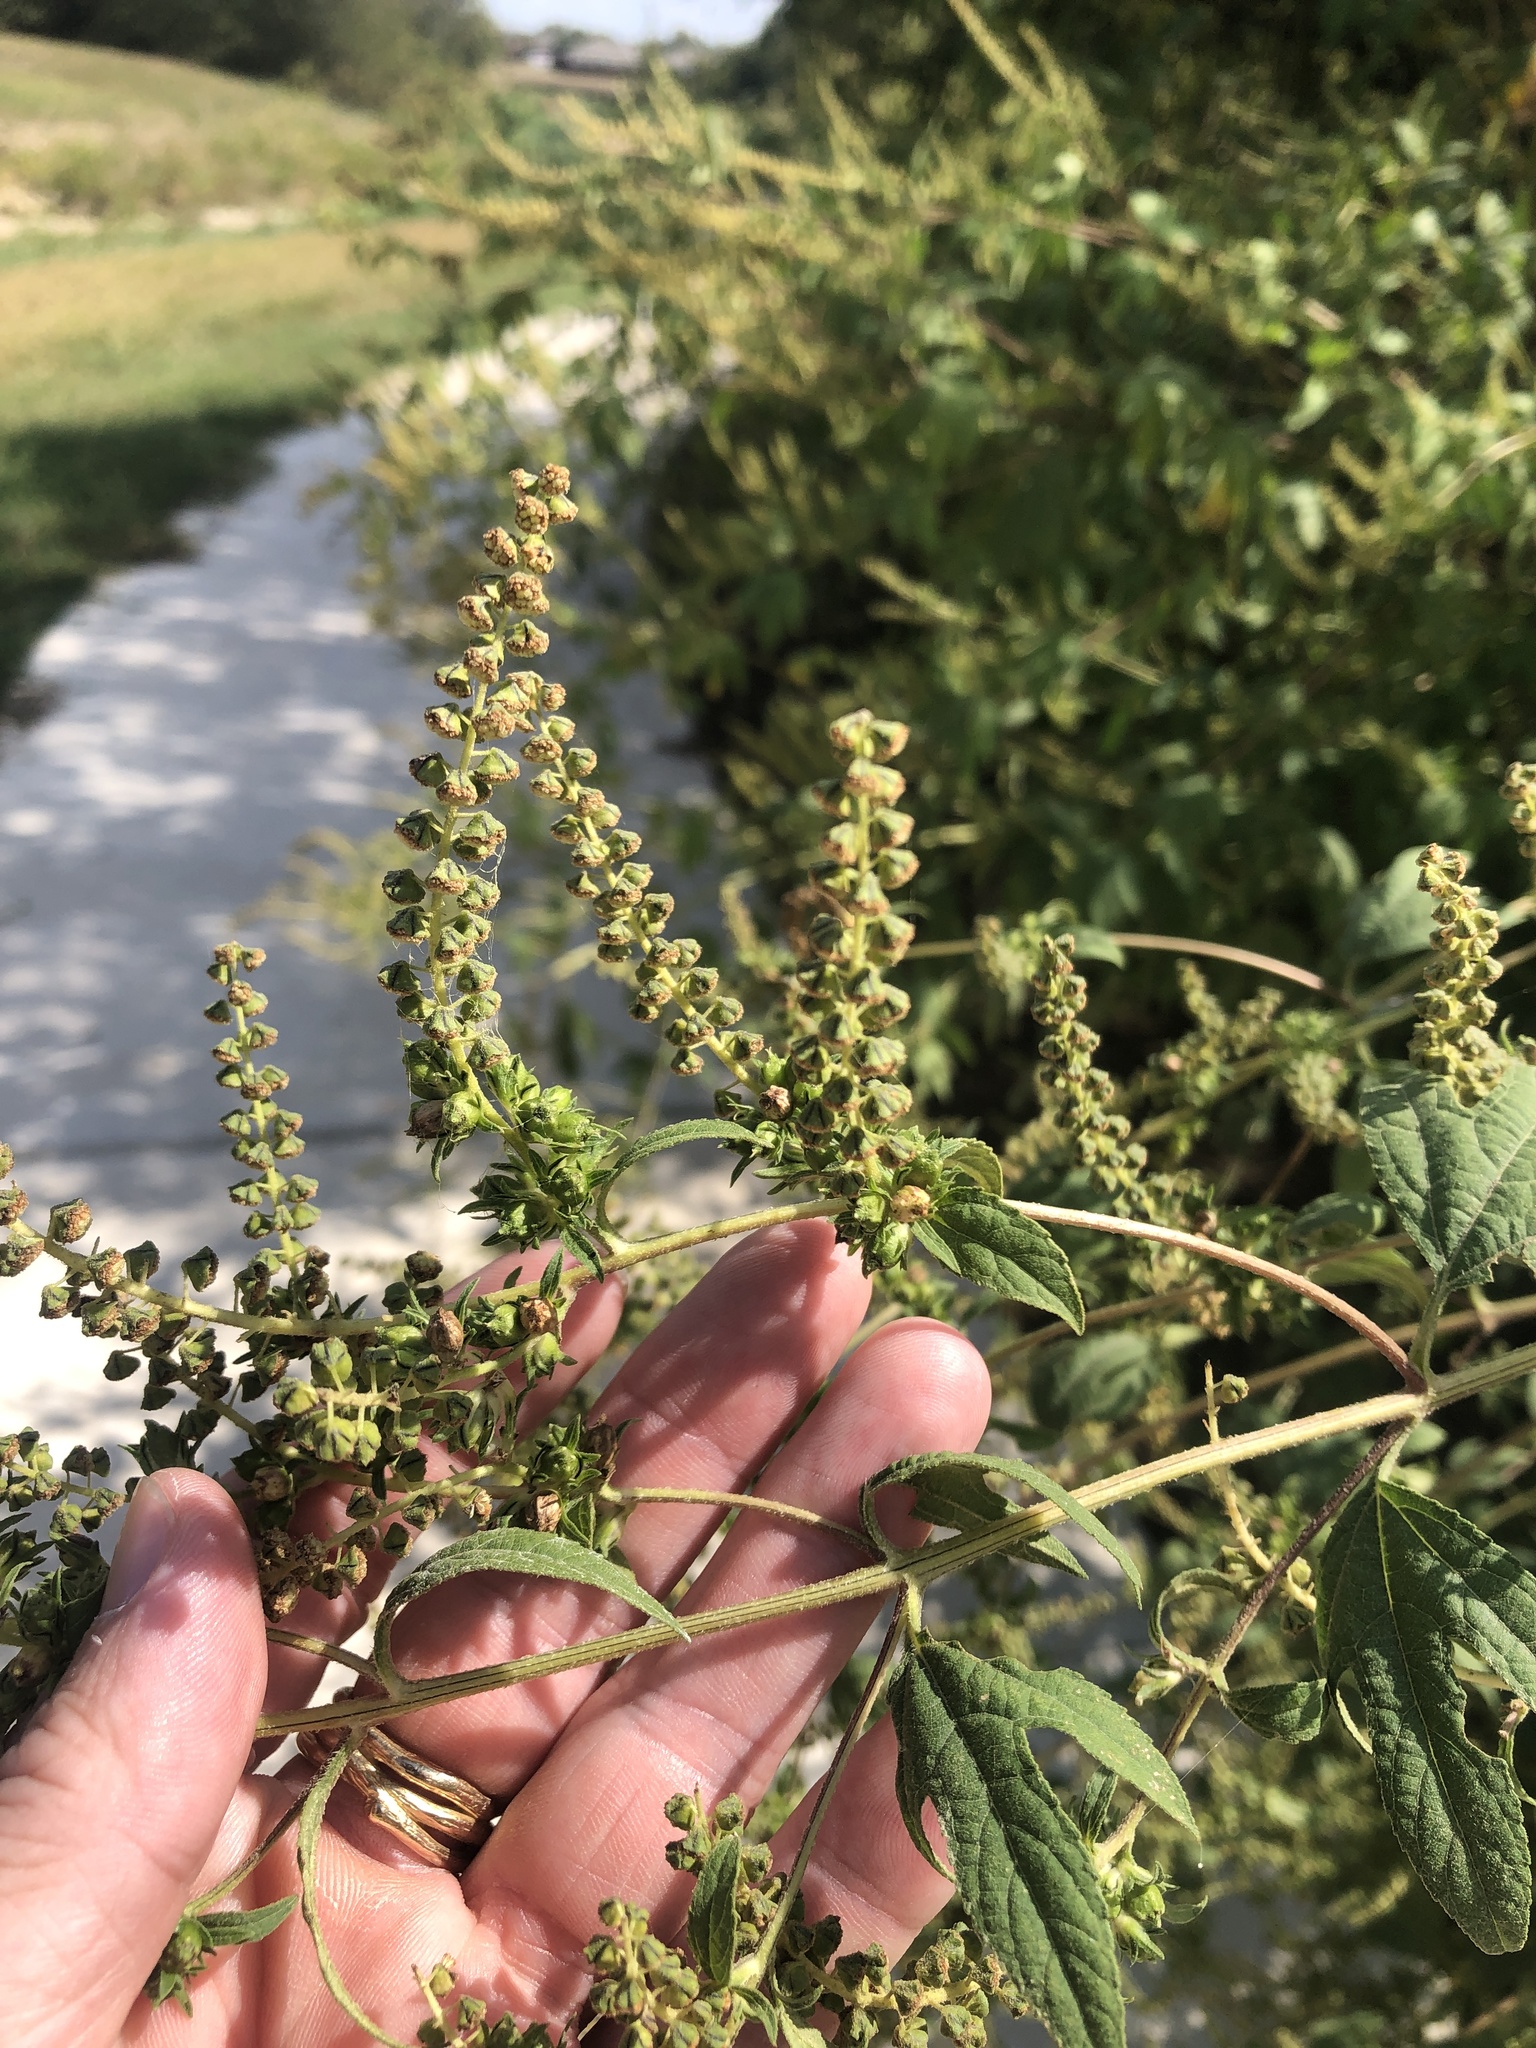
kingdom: Plantae
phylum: Tracheophyta
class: Magnoliopsida
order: Asterales
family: Asteraceae
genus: Ambrosia
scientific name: Ambrosia trifida
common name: Giant ragweed
